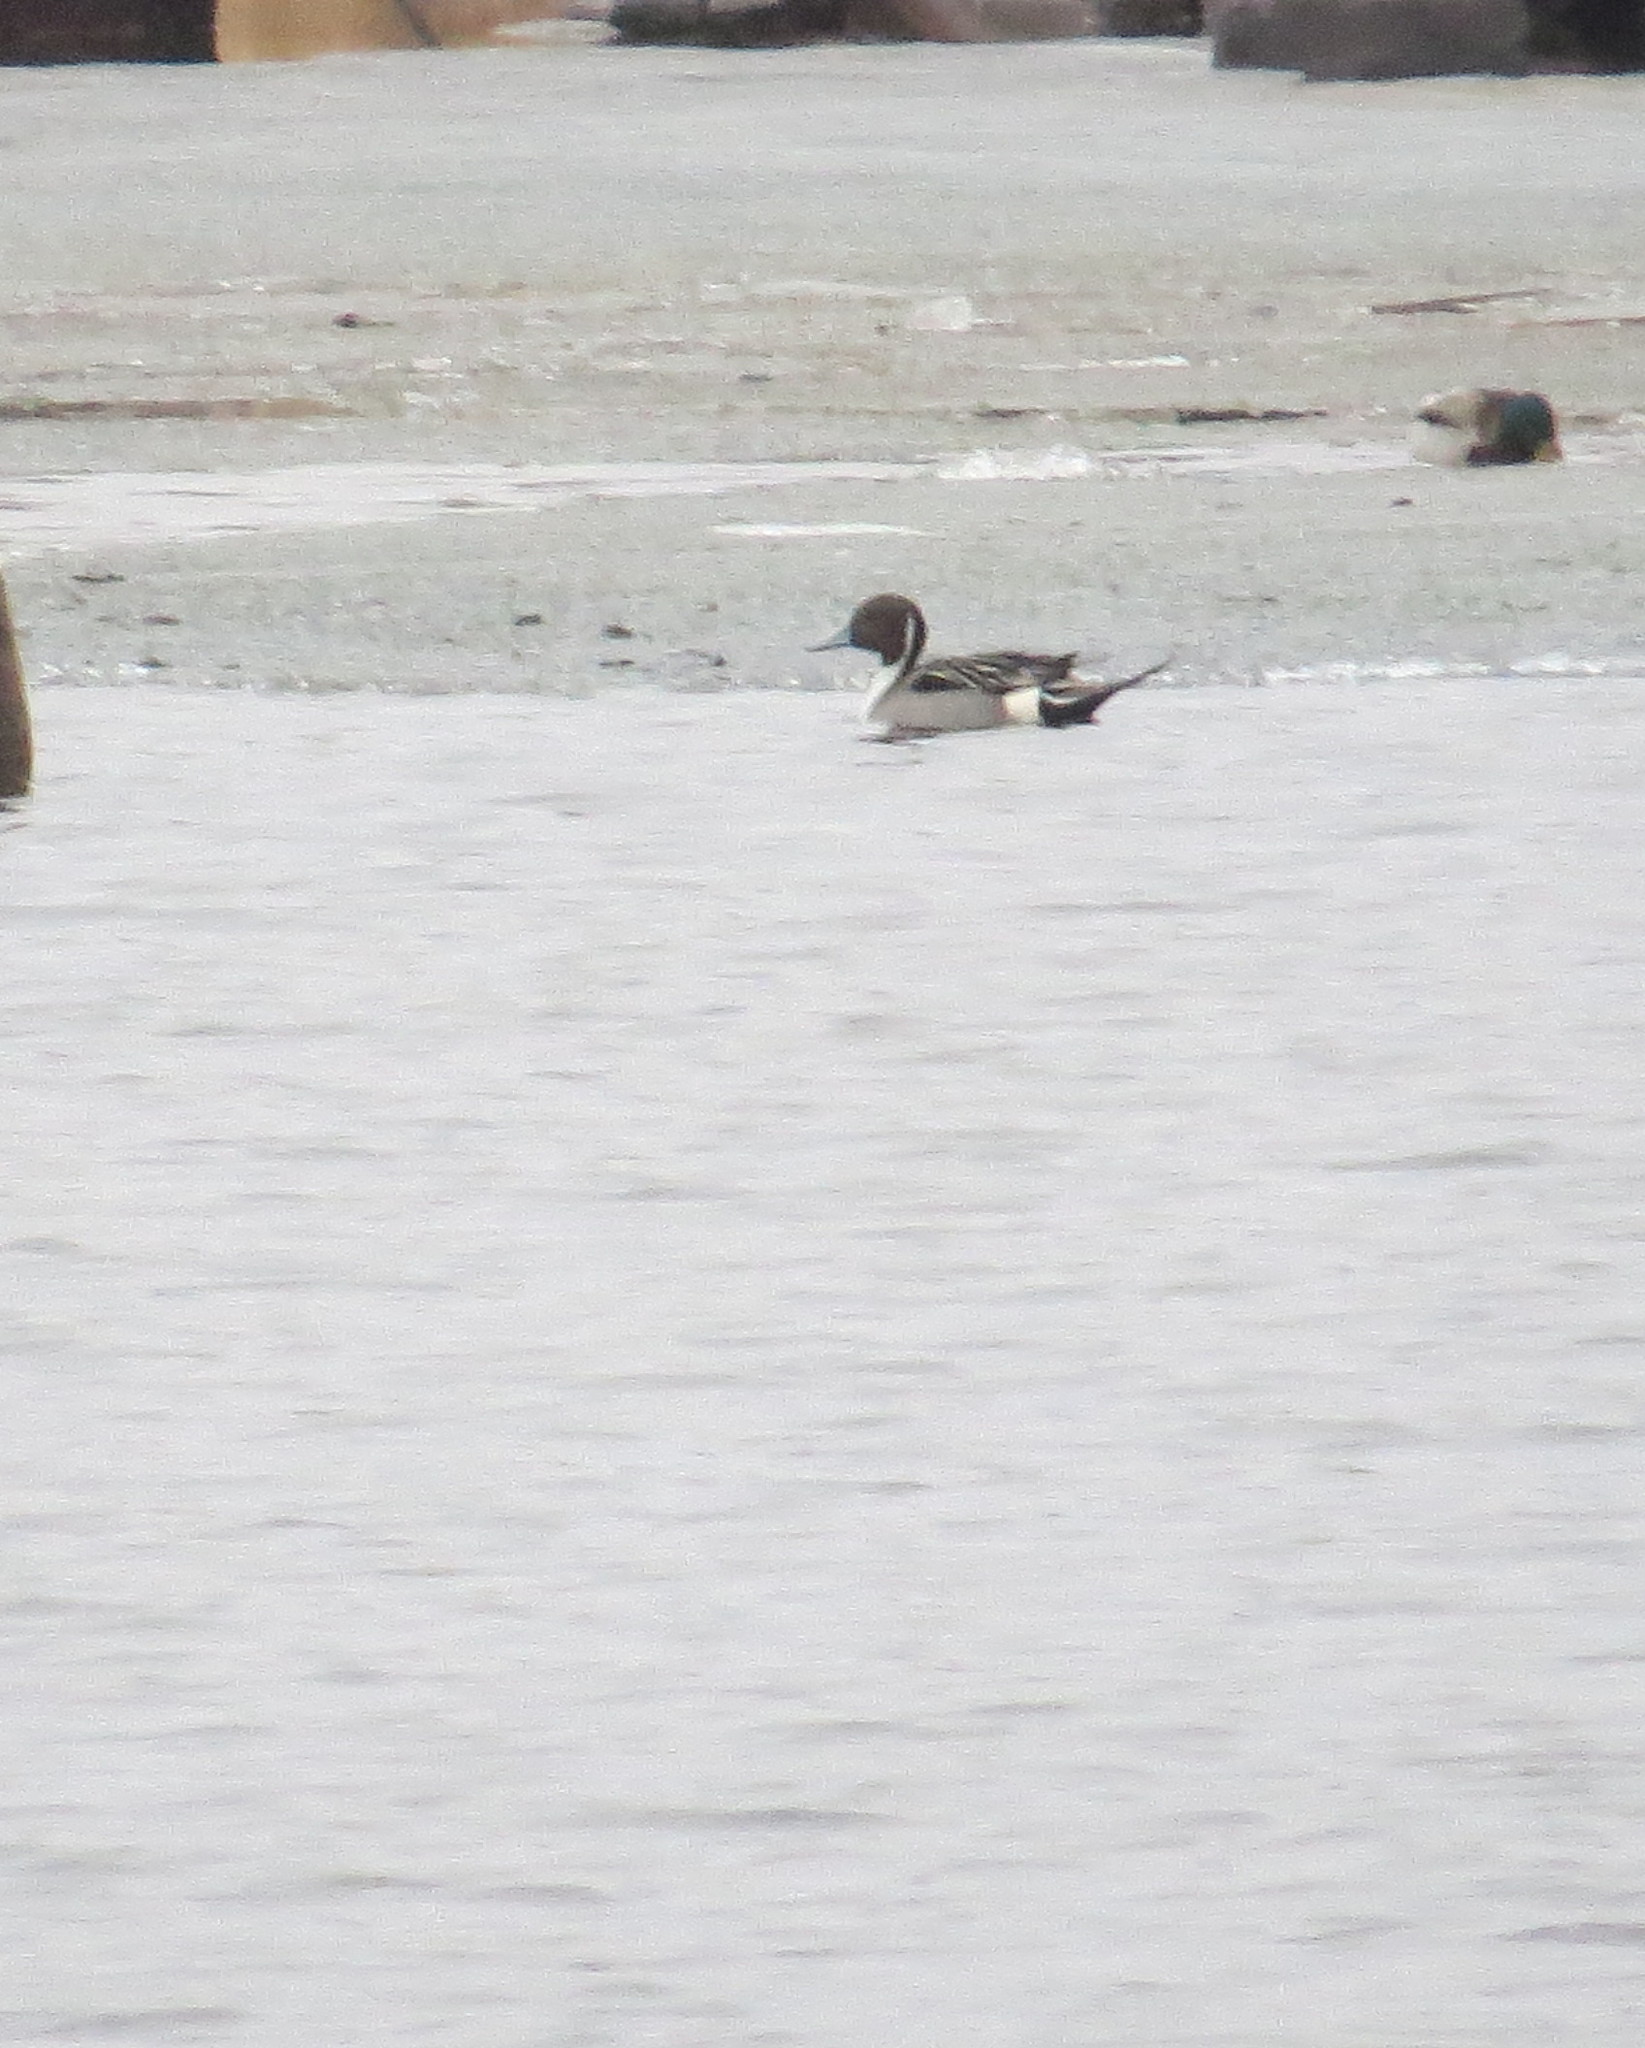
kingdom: Animalia
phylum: Chordata
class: Aves
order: Anseriformes
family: Anatidae
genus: Anas
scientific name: Anas acuta
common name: Northern pintail
